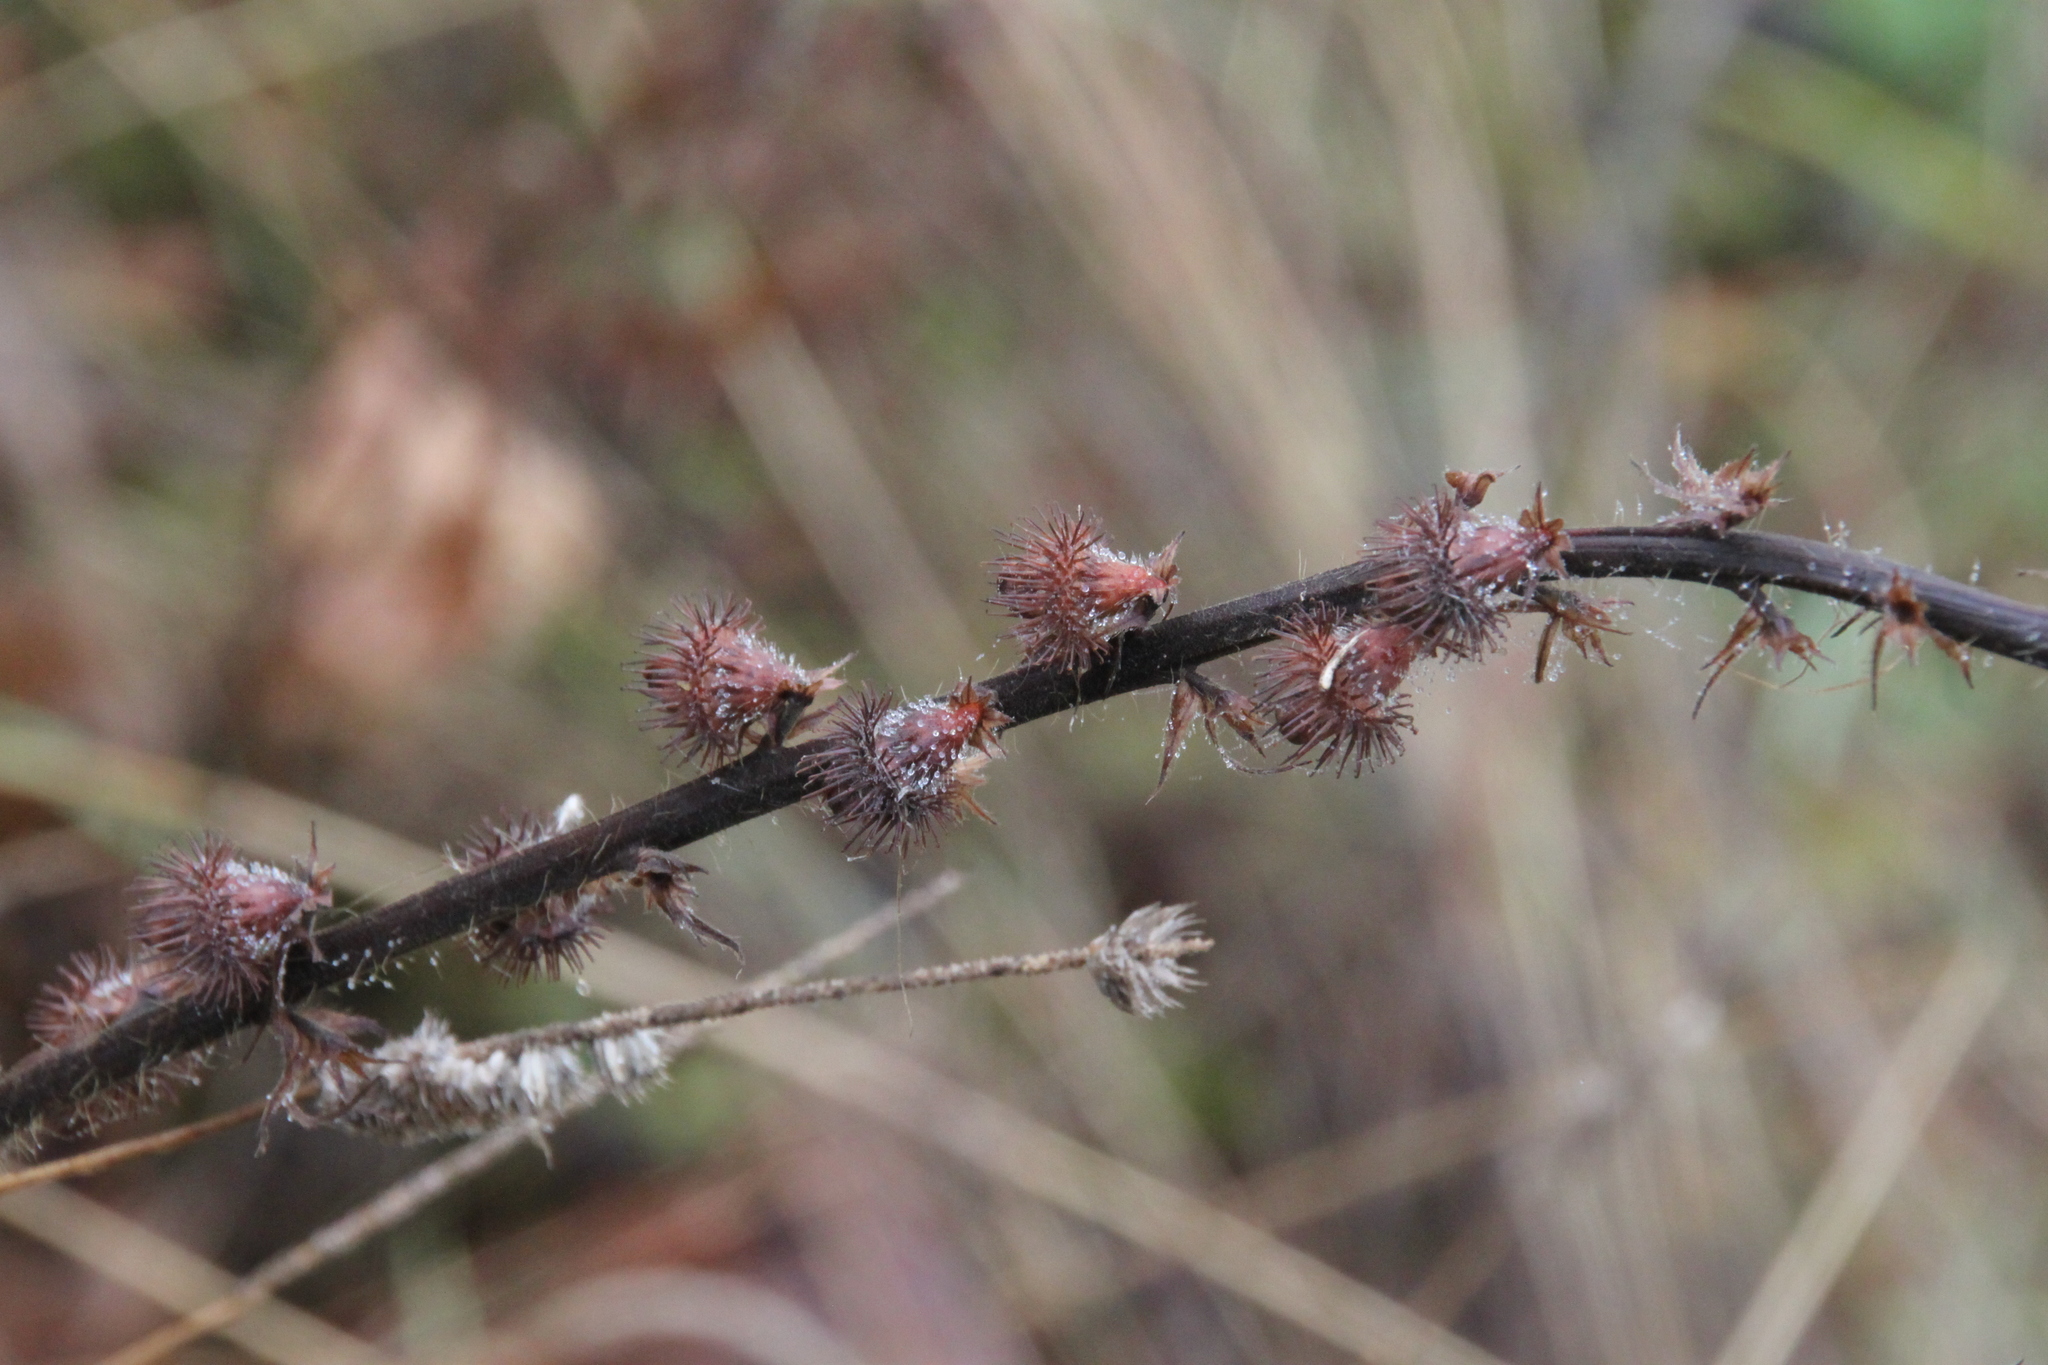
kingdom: Plantae
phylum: Tracheophyta
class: Magnoliopsida
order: Rosales
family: Rosaceae
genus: Agrimonia
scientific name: Agrimonia eupatoria
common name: Agrimony
